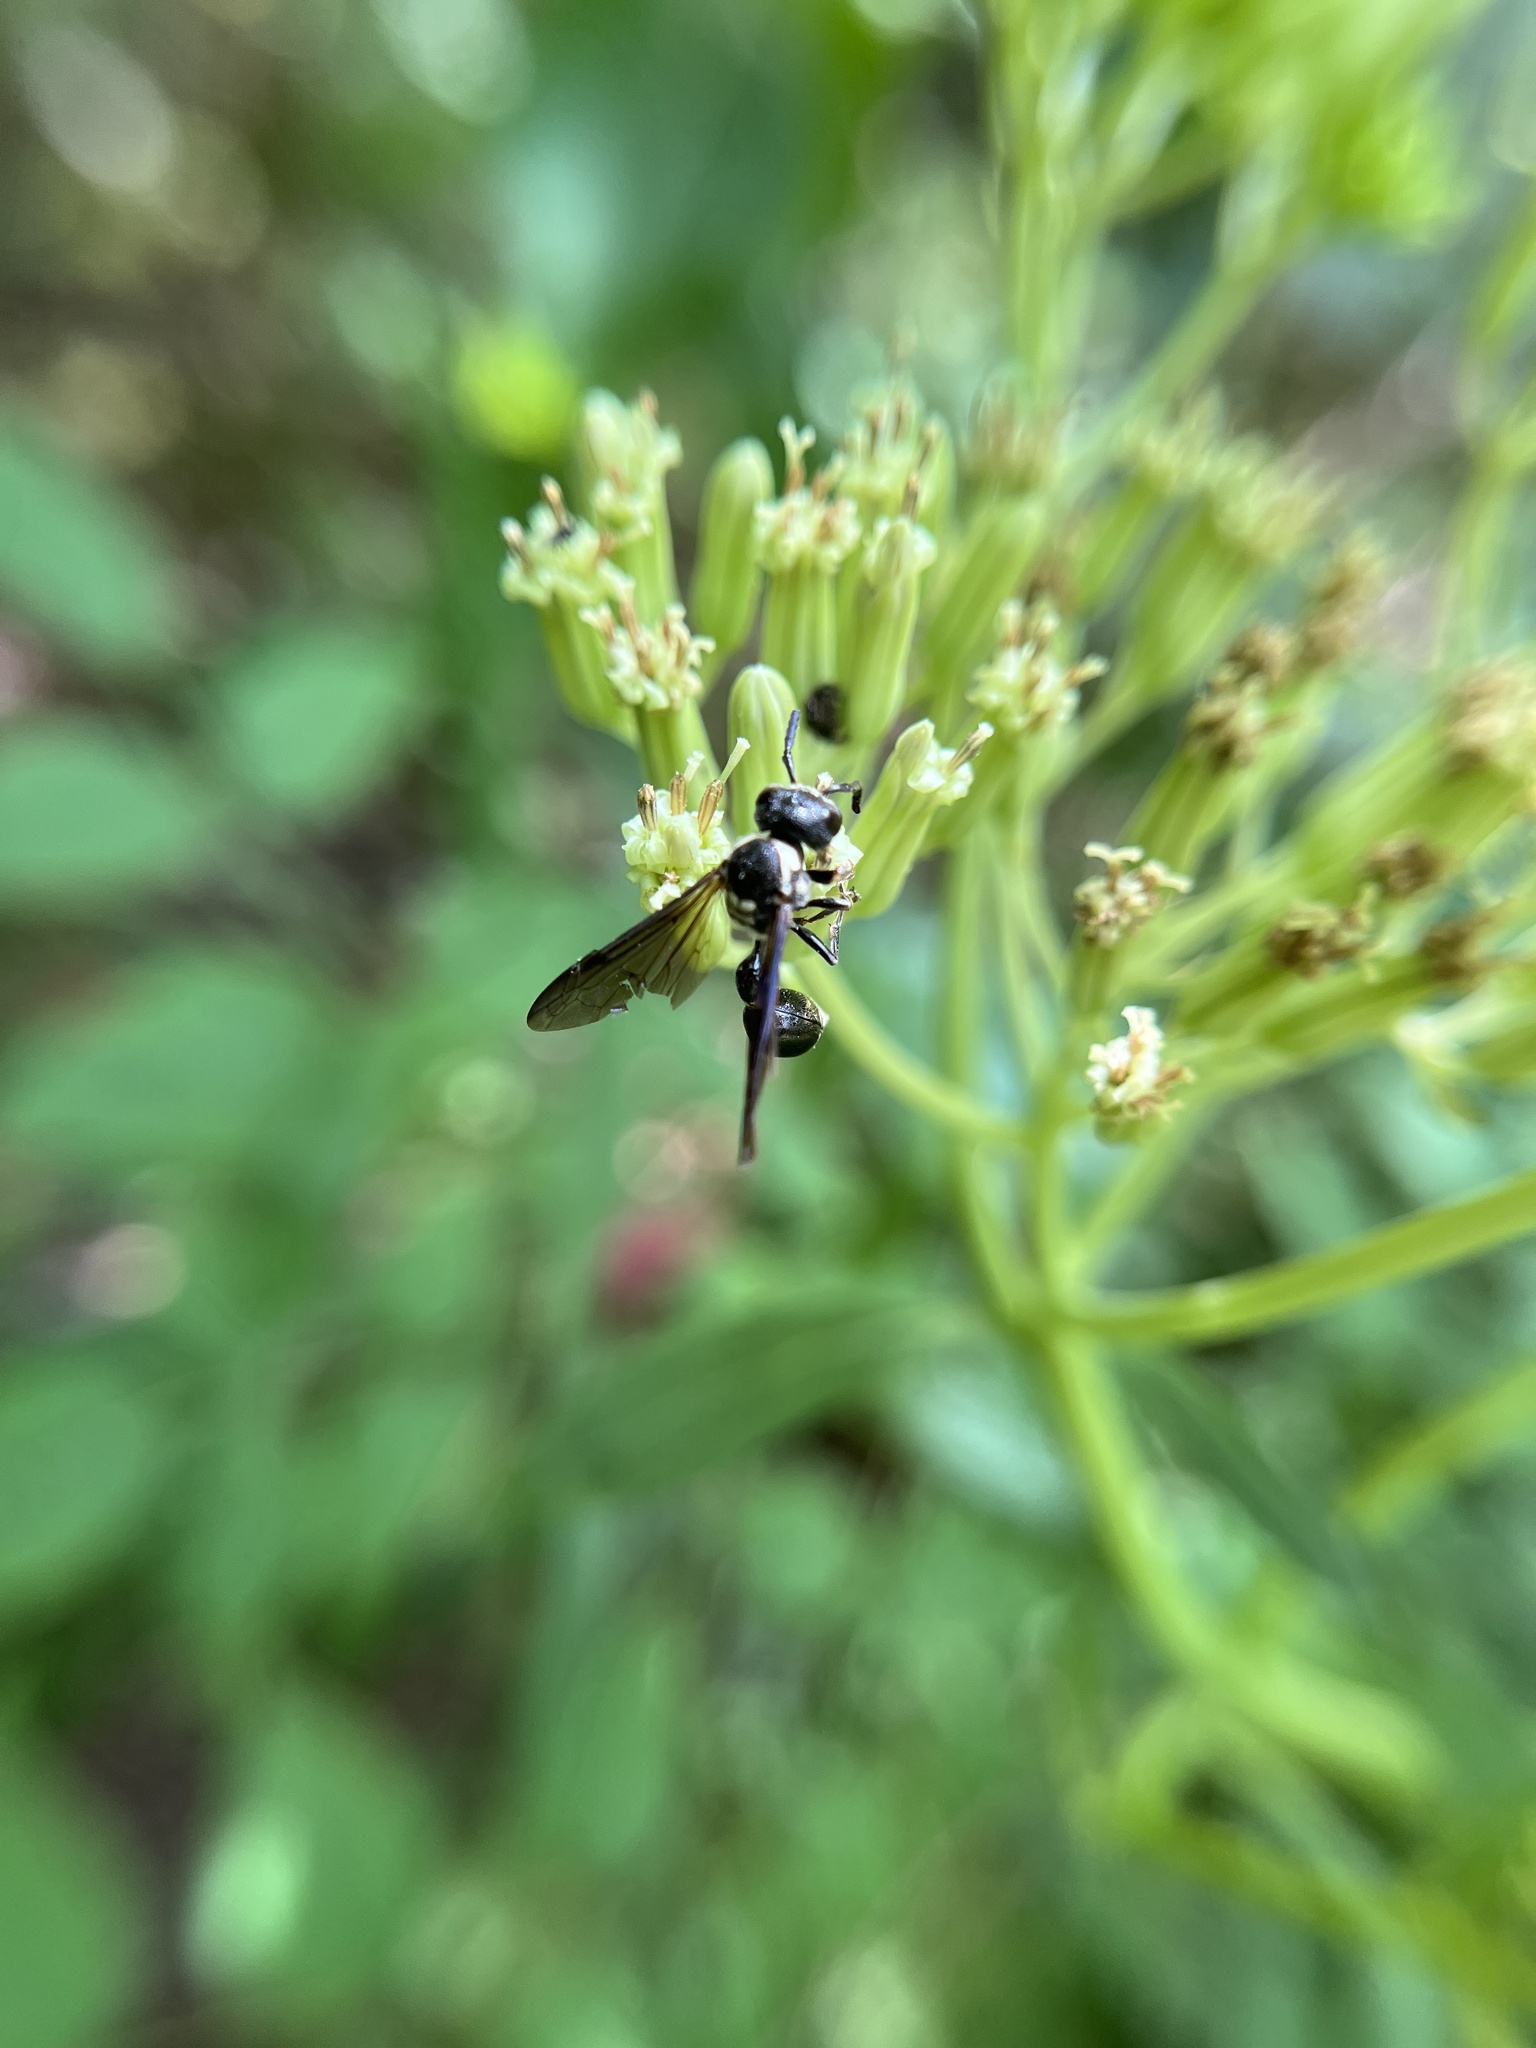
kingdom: Animalia
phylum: Arthropoda
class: Insecta
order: Hymenoptera
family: Eumenidae
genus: Zethus
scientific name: Zethus spinipes
